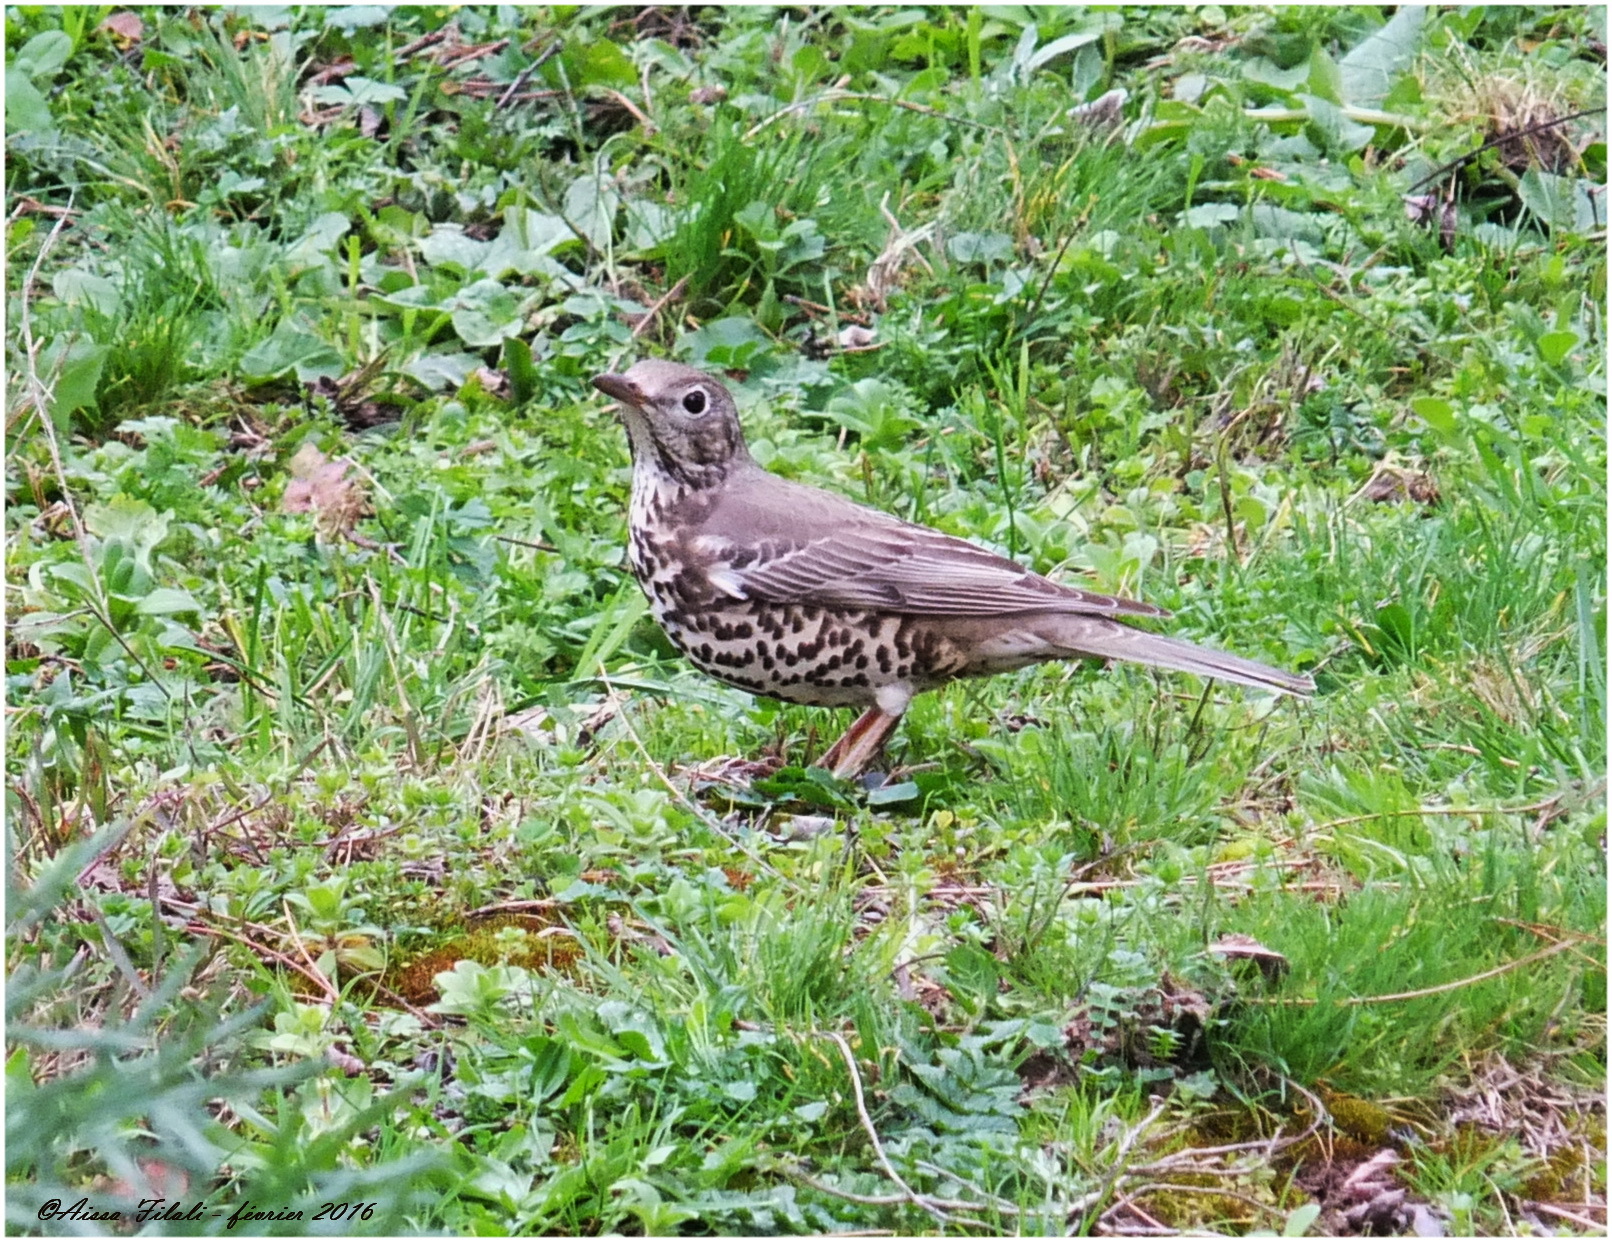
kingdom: Animalia
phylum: Chordata
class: Aves
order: Passeriformes
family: Turdidae
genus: Turdus
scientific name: Turdus viscivorus
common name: Mistle thrush
